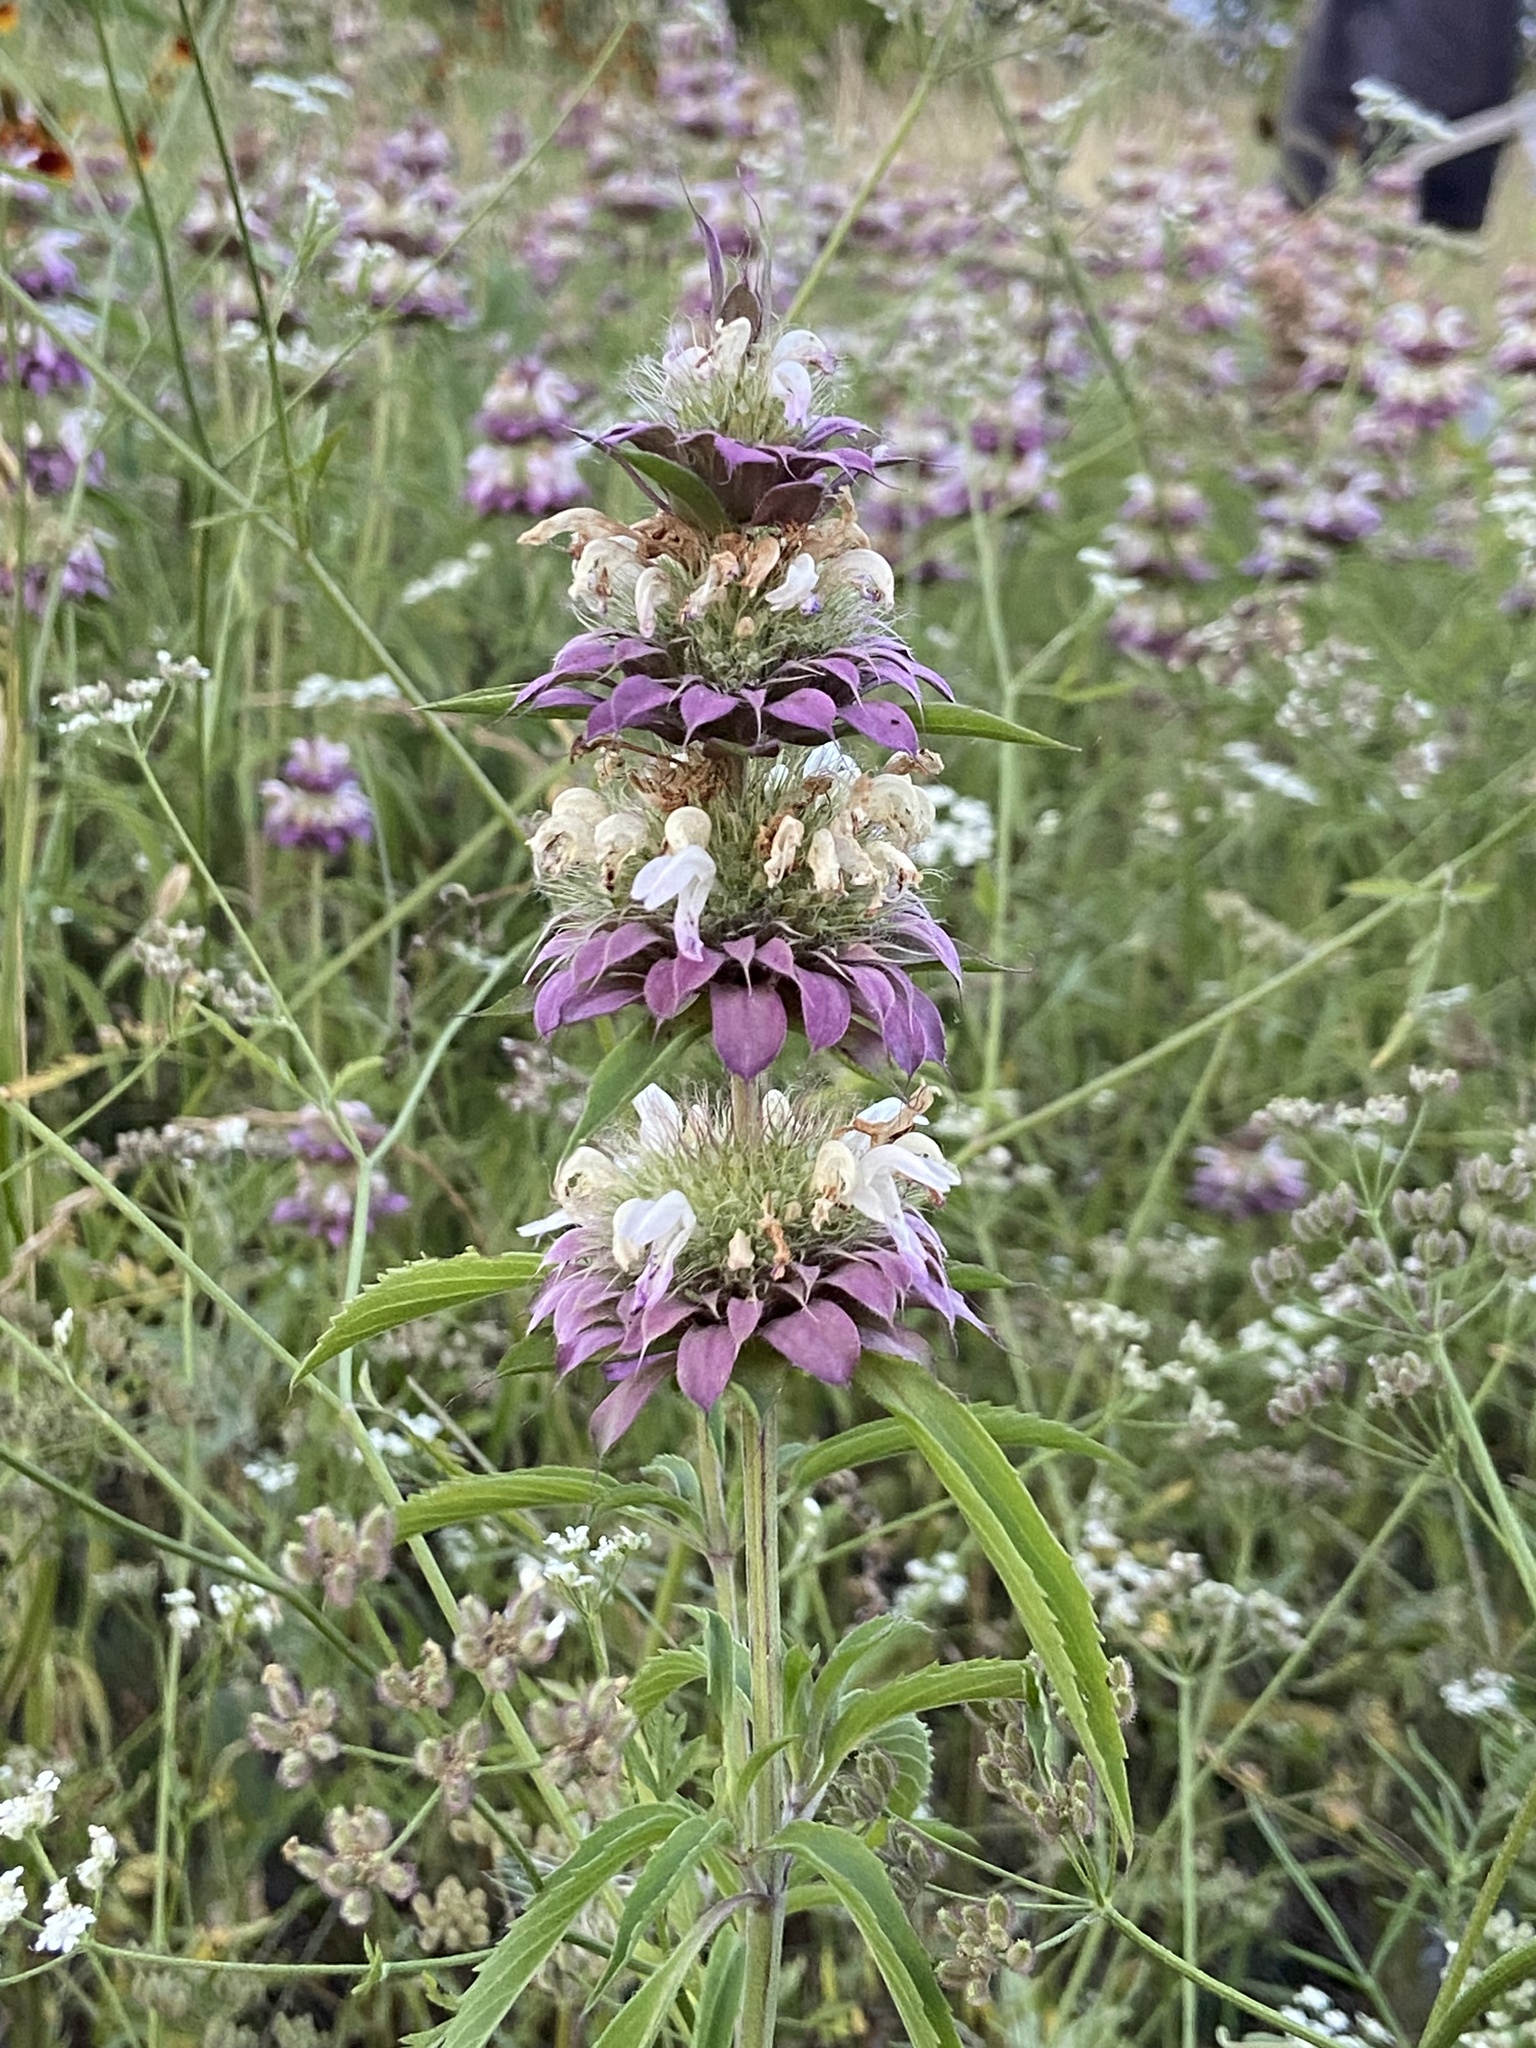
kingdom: Plantae
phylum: Tracheophyta
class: Magnoliopsida
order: Lamiales
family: Lamiaceae
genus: Monarda
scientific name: Monarda citriodora
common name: Lemon beebalm
